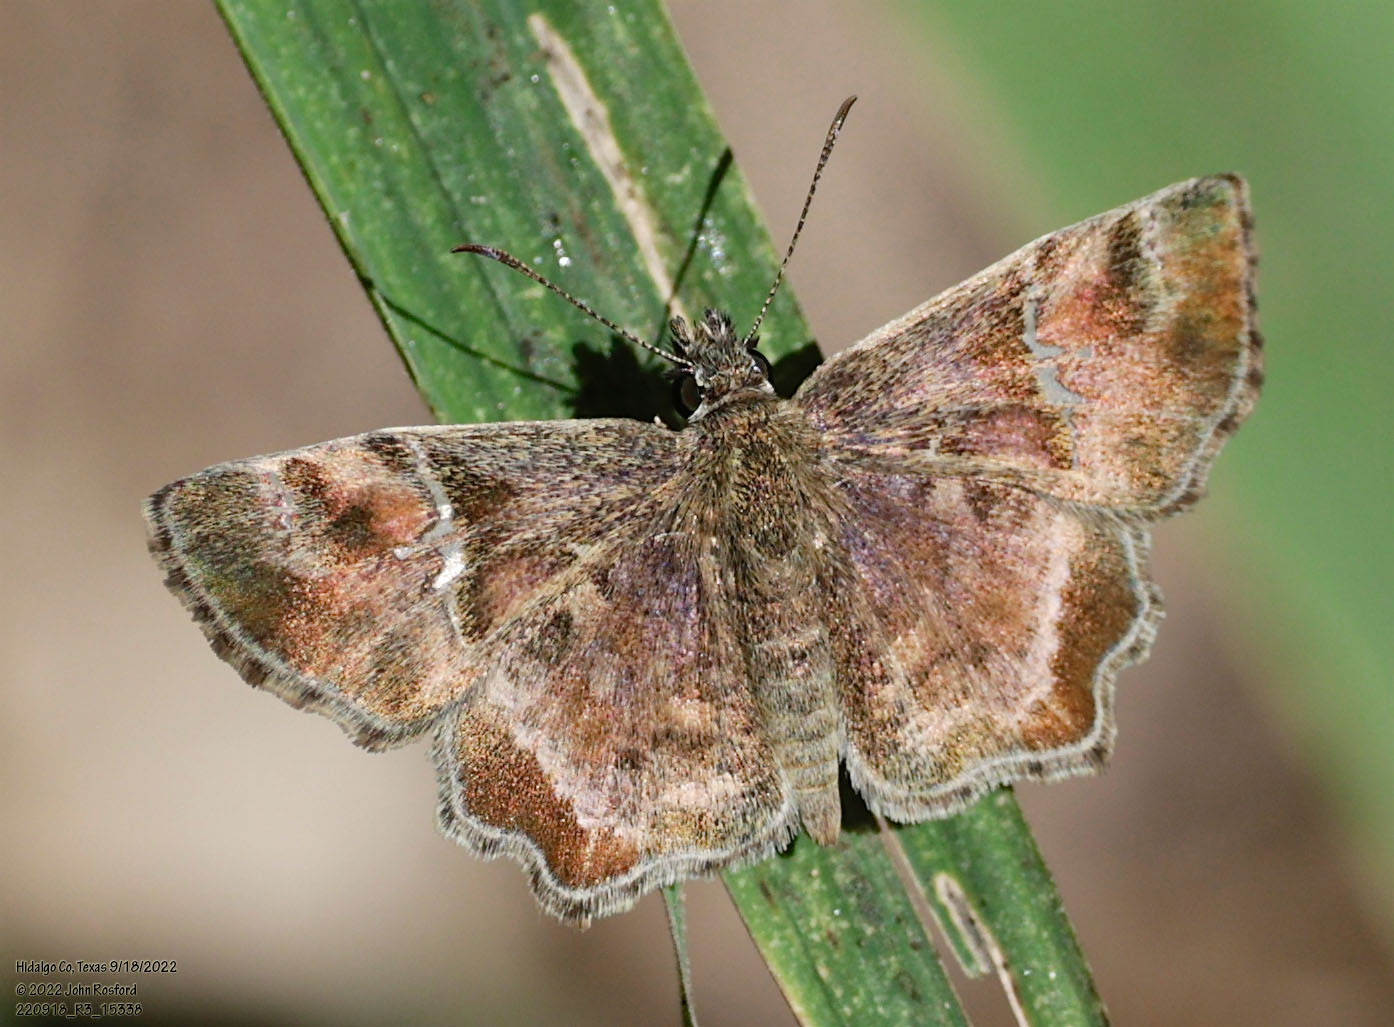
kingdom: Animalia
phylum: Arthropoda
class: Insecta
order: Lepidoptera
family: Hesperiidae
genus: Systasea
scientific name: Systasea pulverulenta
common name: Texas powdered skipper
